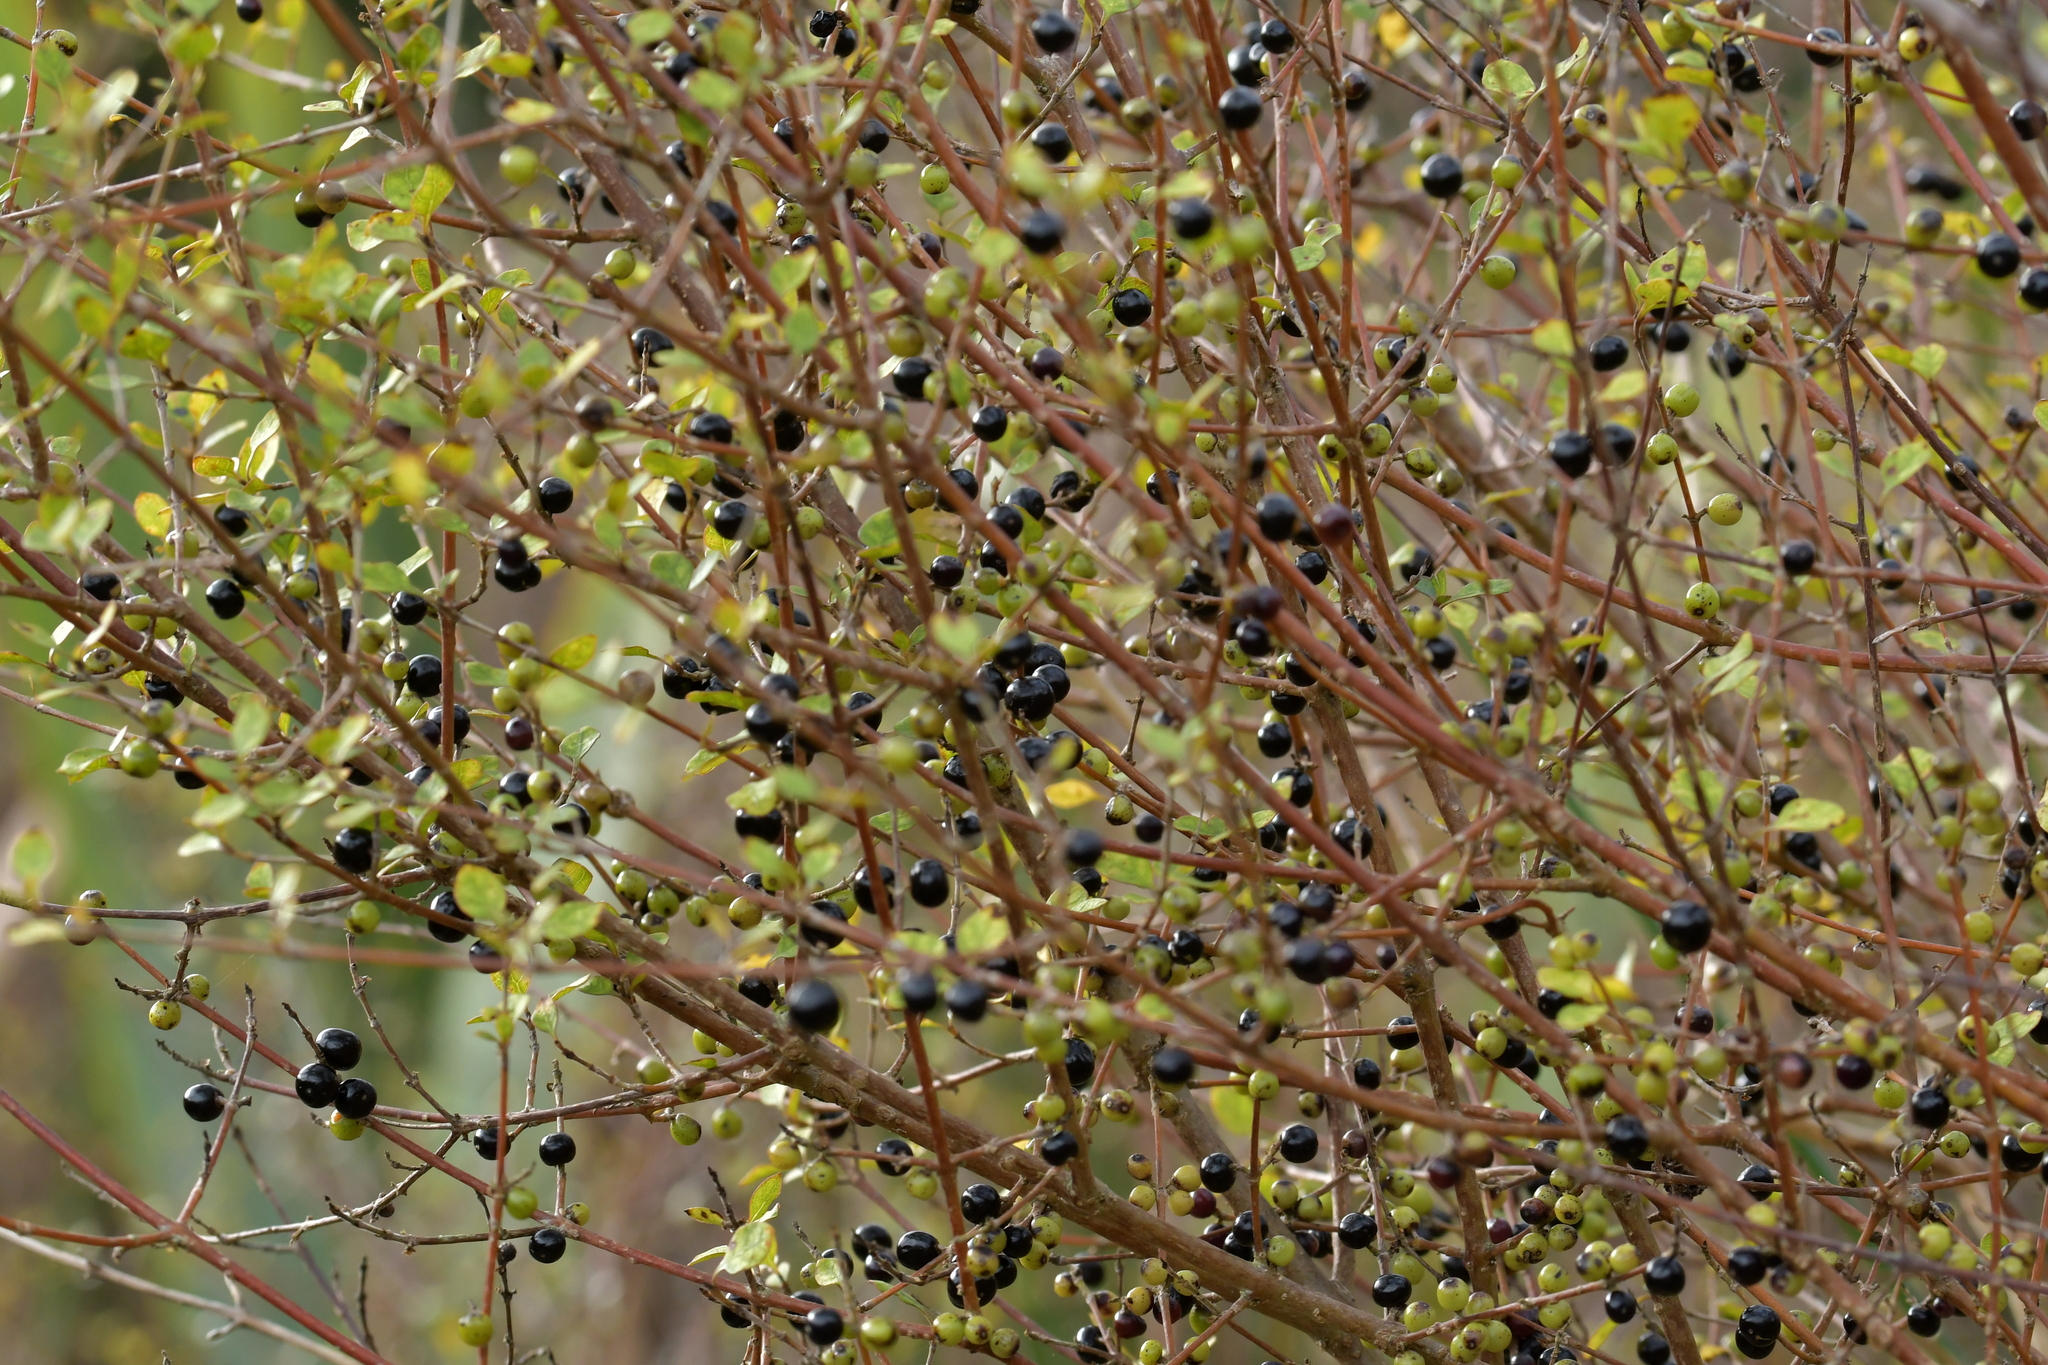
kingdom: Plantae
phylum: Tracheophyta
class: Magnoliopsida
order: Gentianales
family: Rubiaceae
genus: Coprosma
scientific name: Coprosma tenuicaulis
